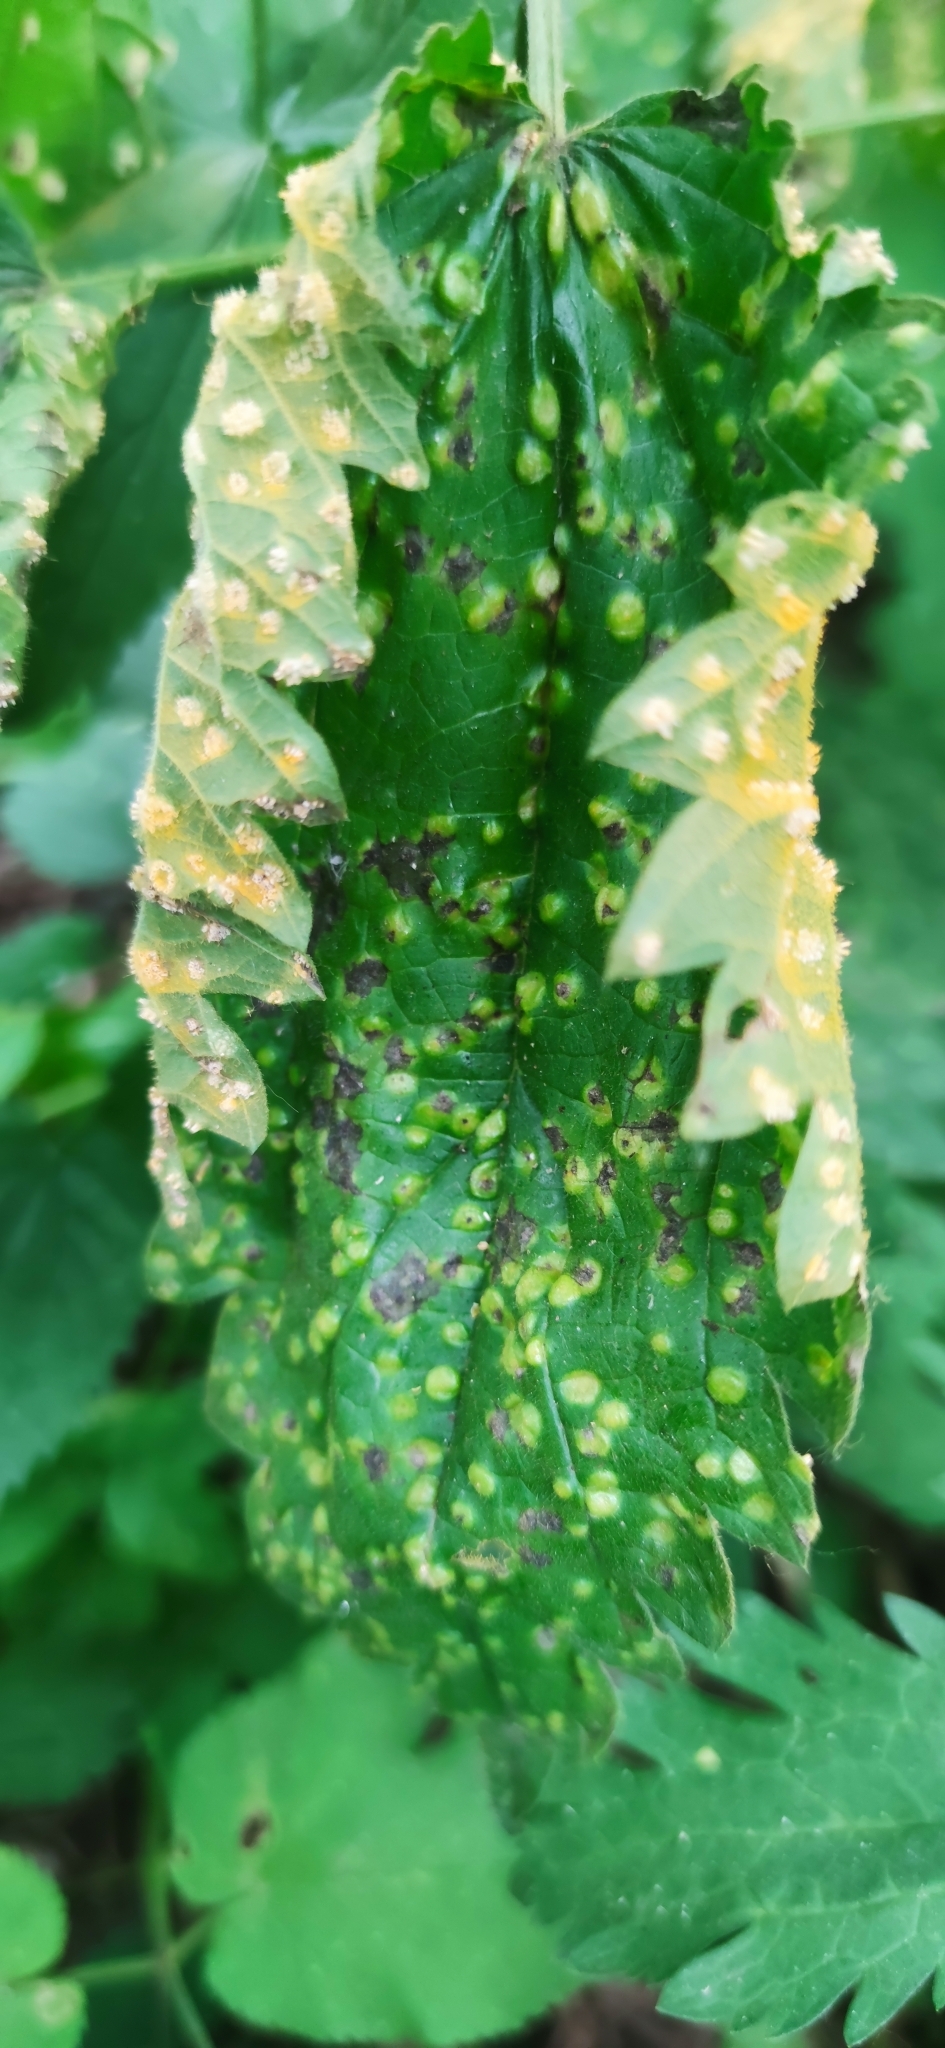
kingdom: Fungi
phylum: Basidiomycota
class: Pucciniomycetes
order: Pucciniales
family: Pucciniaceae
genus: Puccinia
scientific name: Puccinia urticata
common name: Nettle clustercup rust fungus
